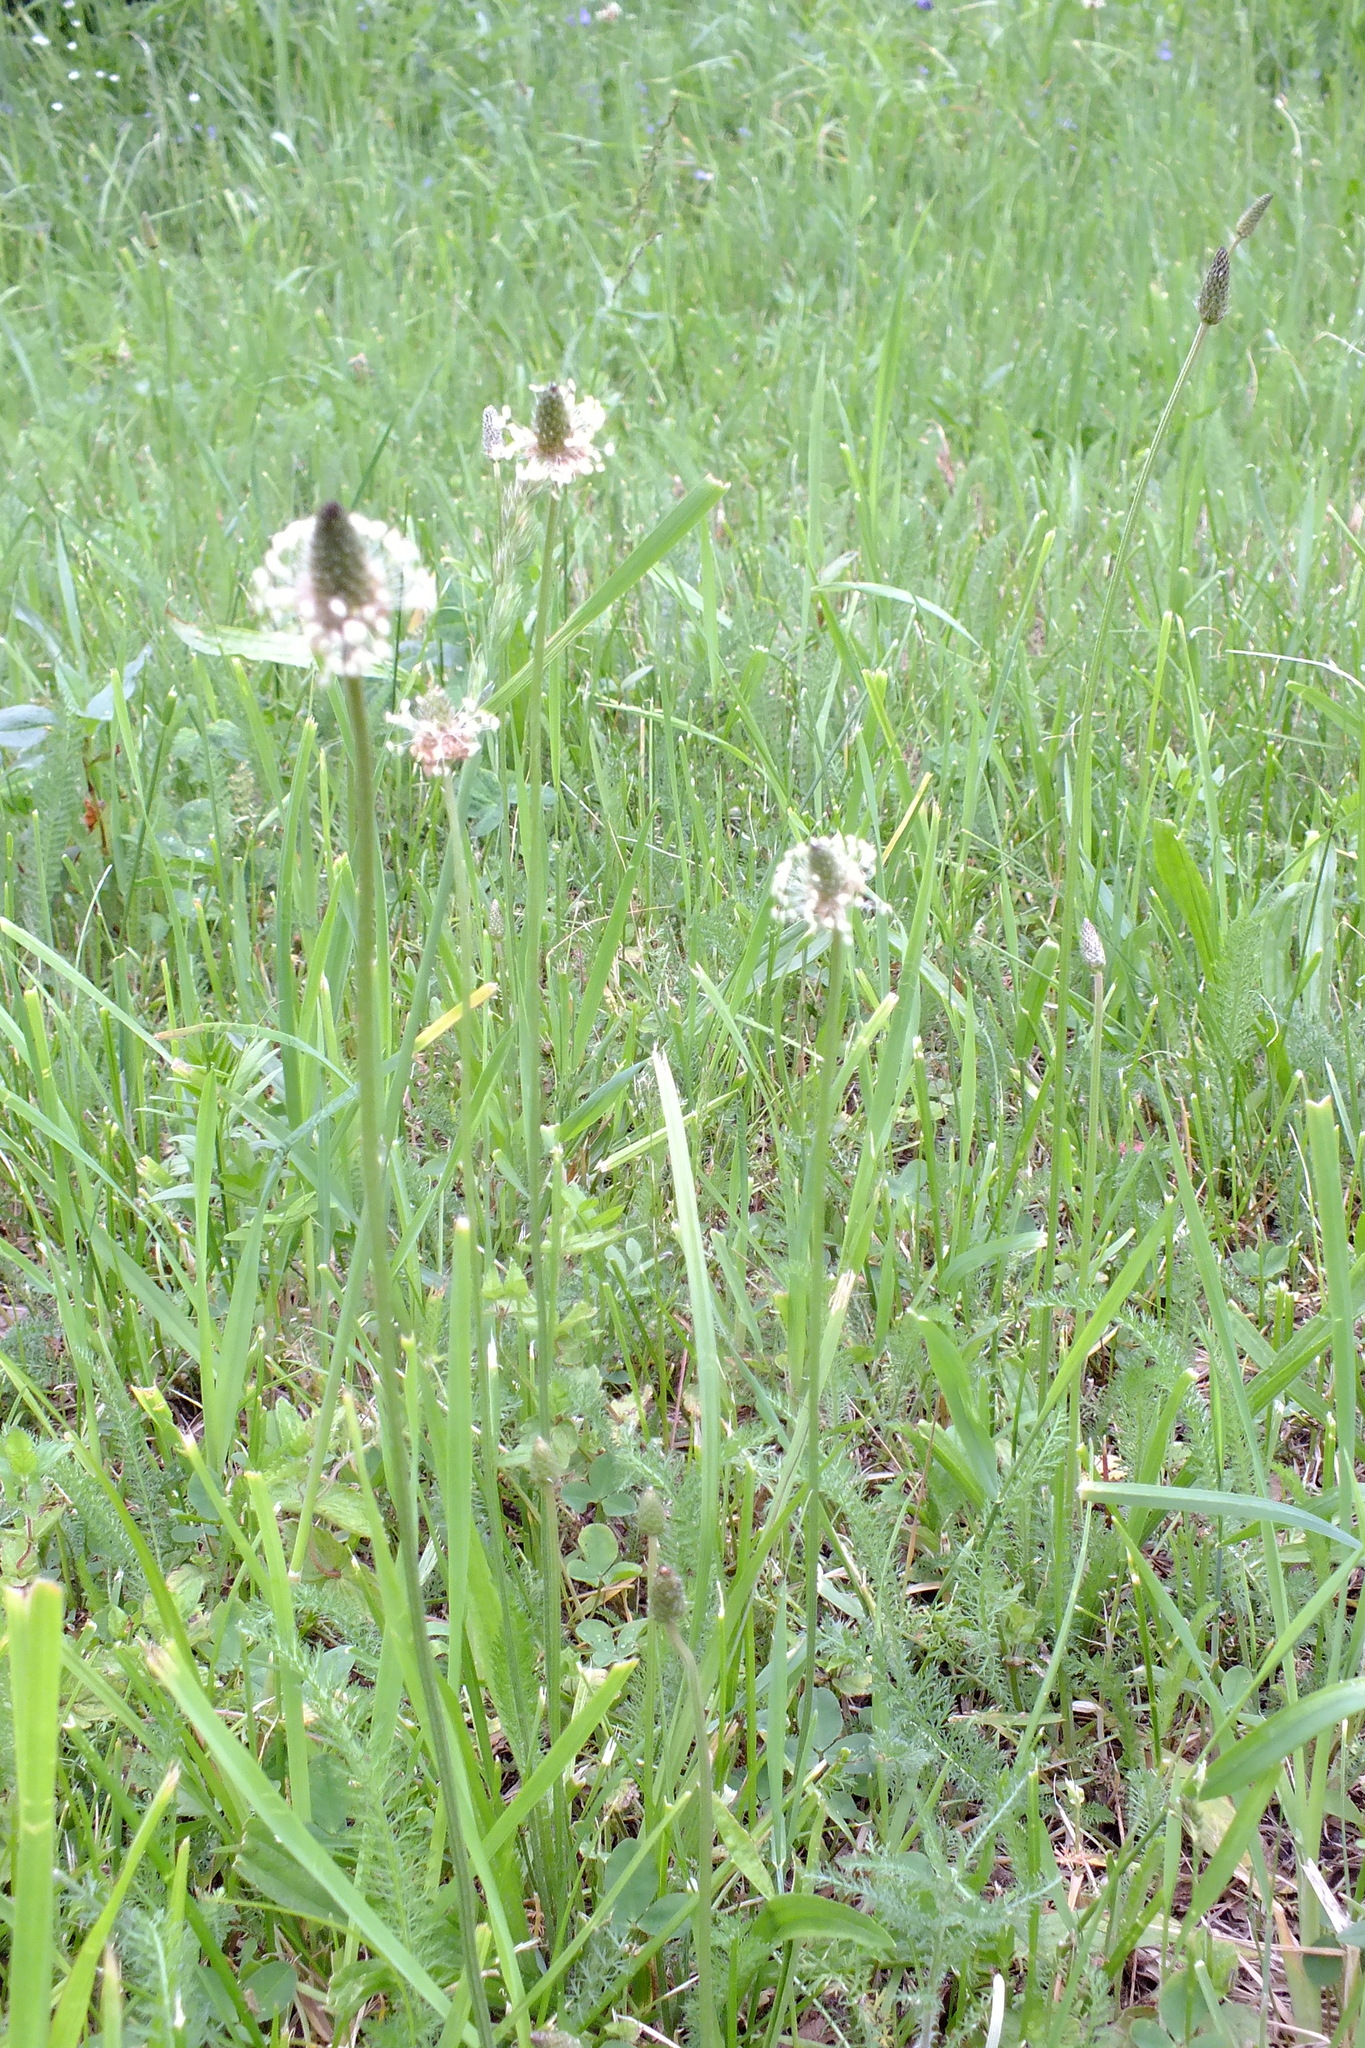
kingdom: Plantae
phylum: Tracheophyta
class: Magnoliopsida
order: Lamiales
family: Plantaginaceae
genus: Plantago
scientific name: Plantago lanceolata
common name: Ribwort plantain
